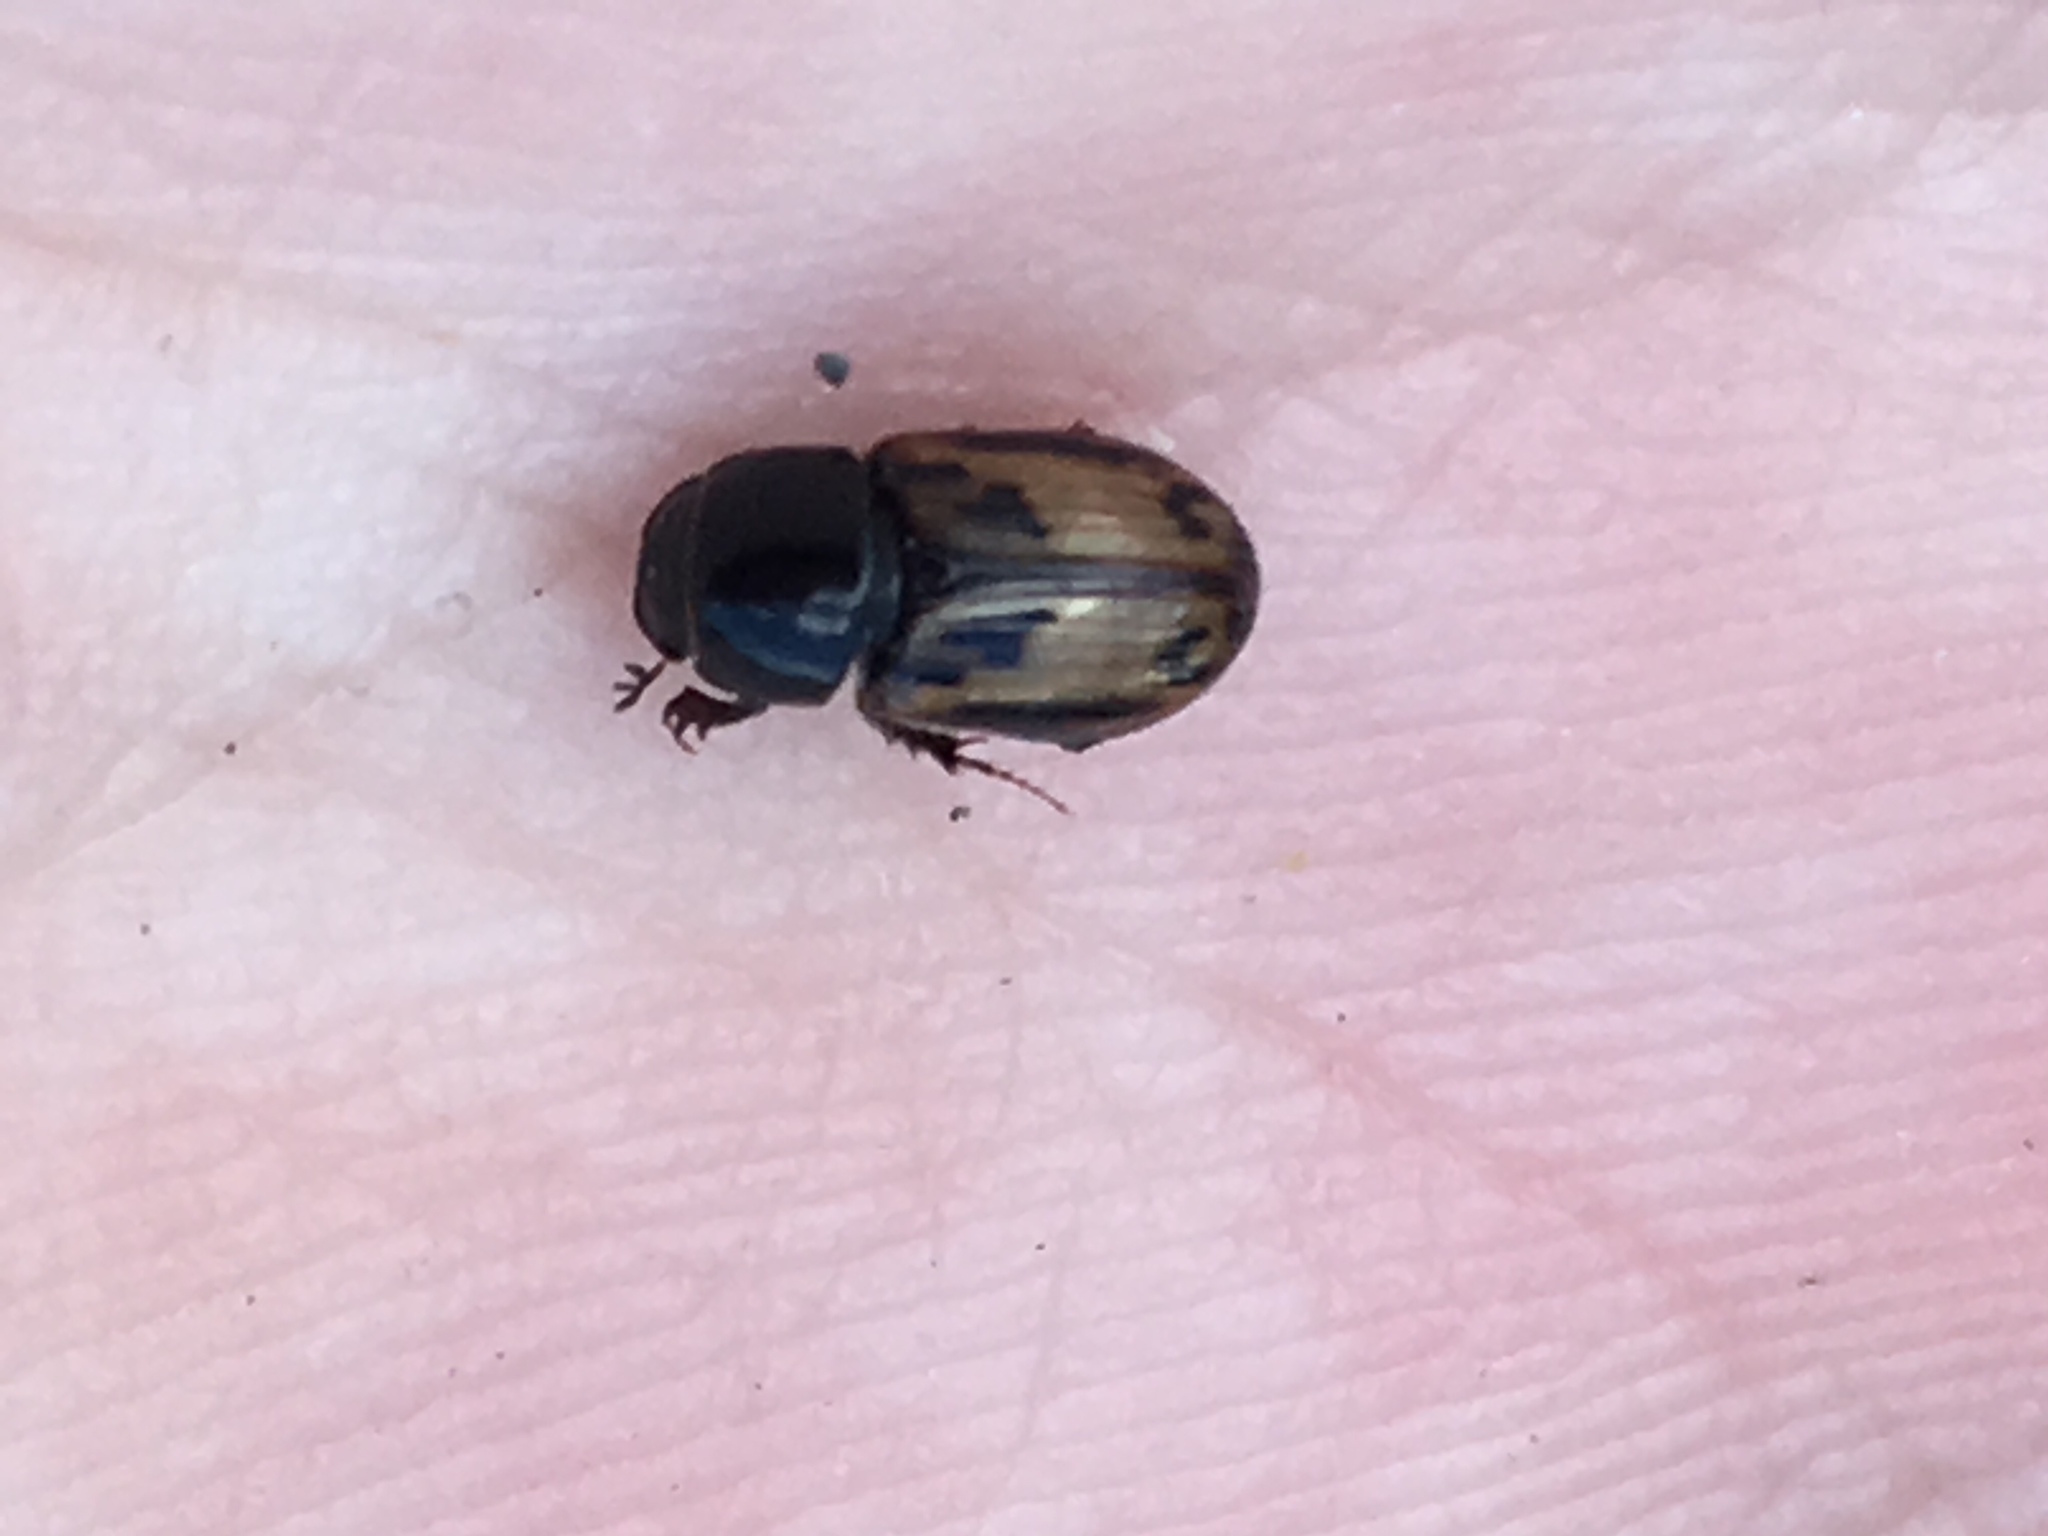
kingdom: Animalia
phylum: Arthropoda
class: Insecta
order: Coleoptera
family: Scarabaeidae
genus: Chilothorax
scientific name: Chilothorax distinctus
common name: Maculated dung beetle
